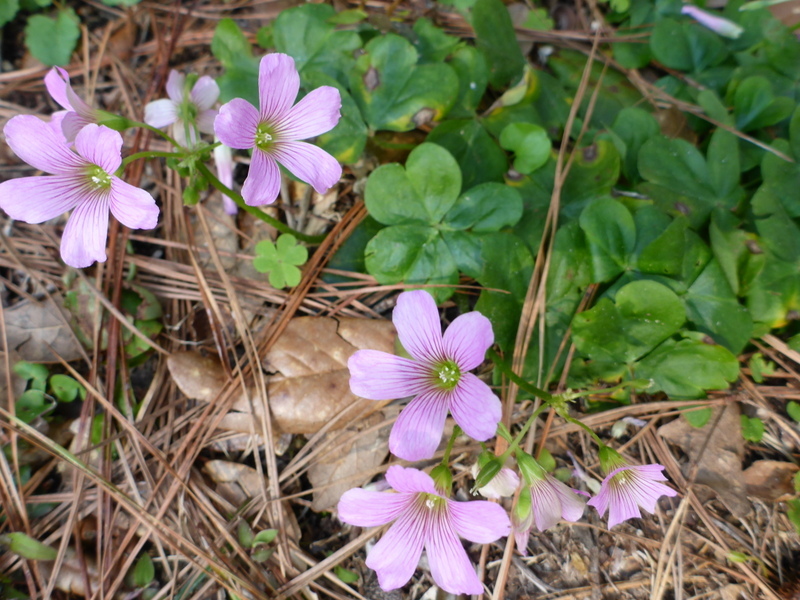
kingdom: Plantae
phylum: Tracheophyta
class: Magnoliopsida
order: Oxalidales
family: Oxalidaceae
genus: Oxalis
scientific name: Oxalis debilis
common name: Large-flowered pink-sorrel
